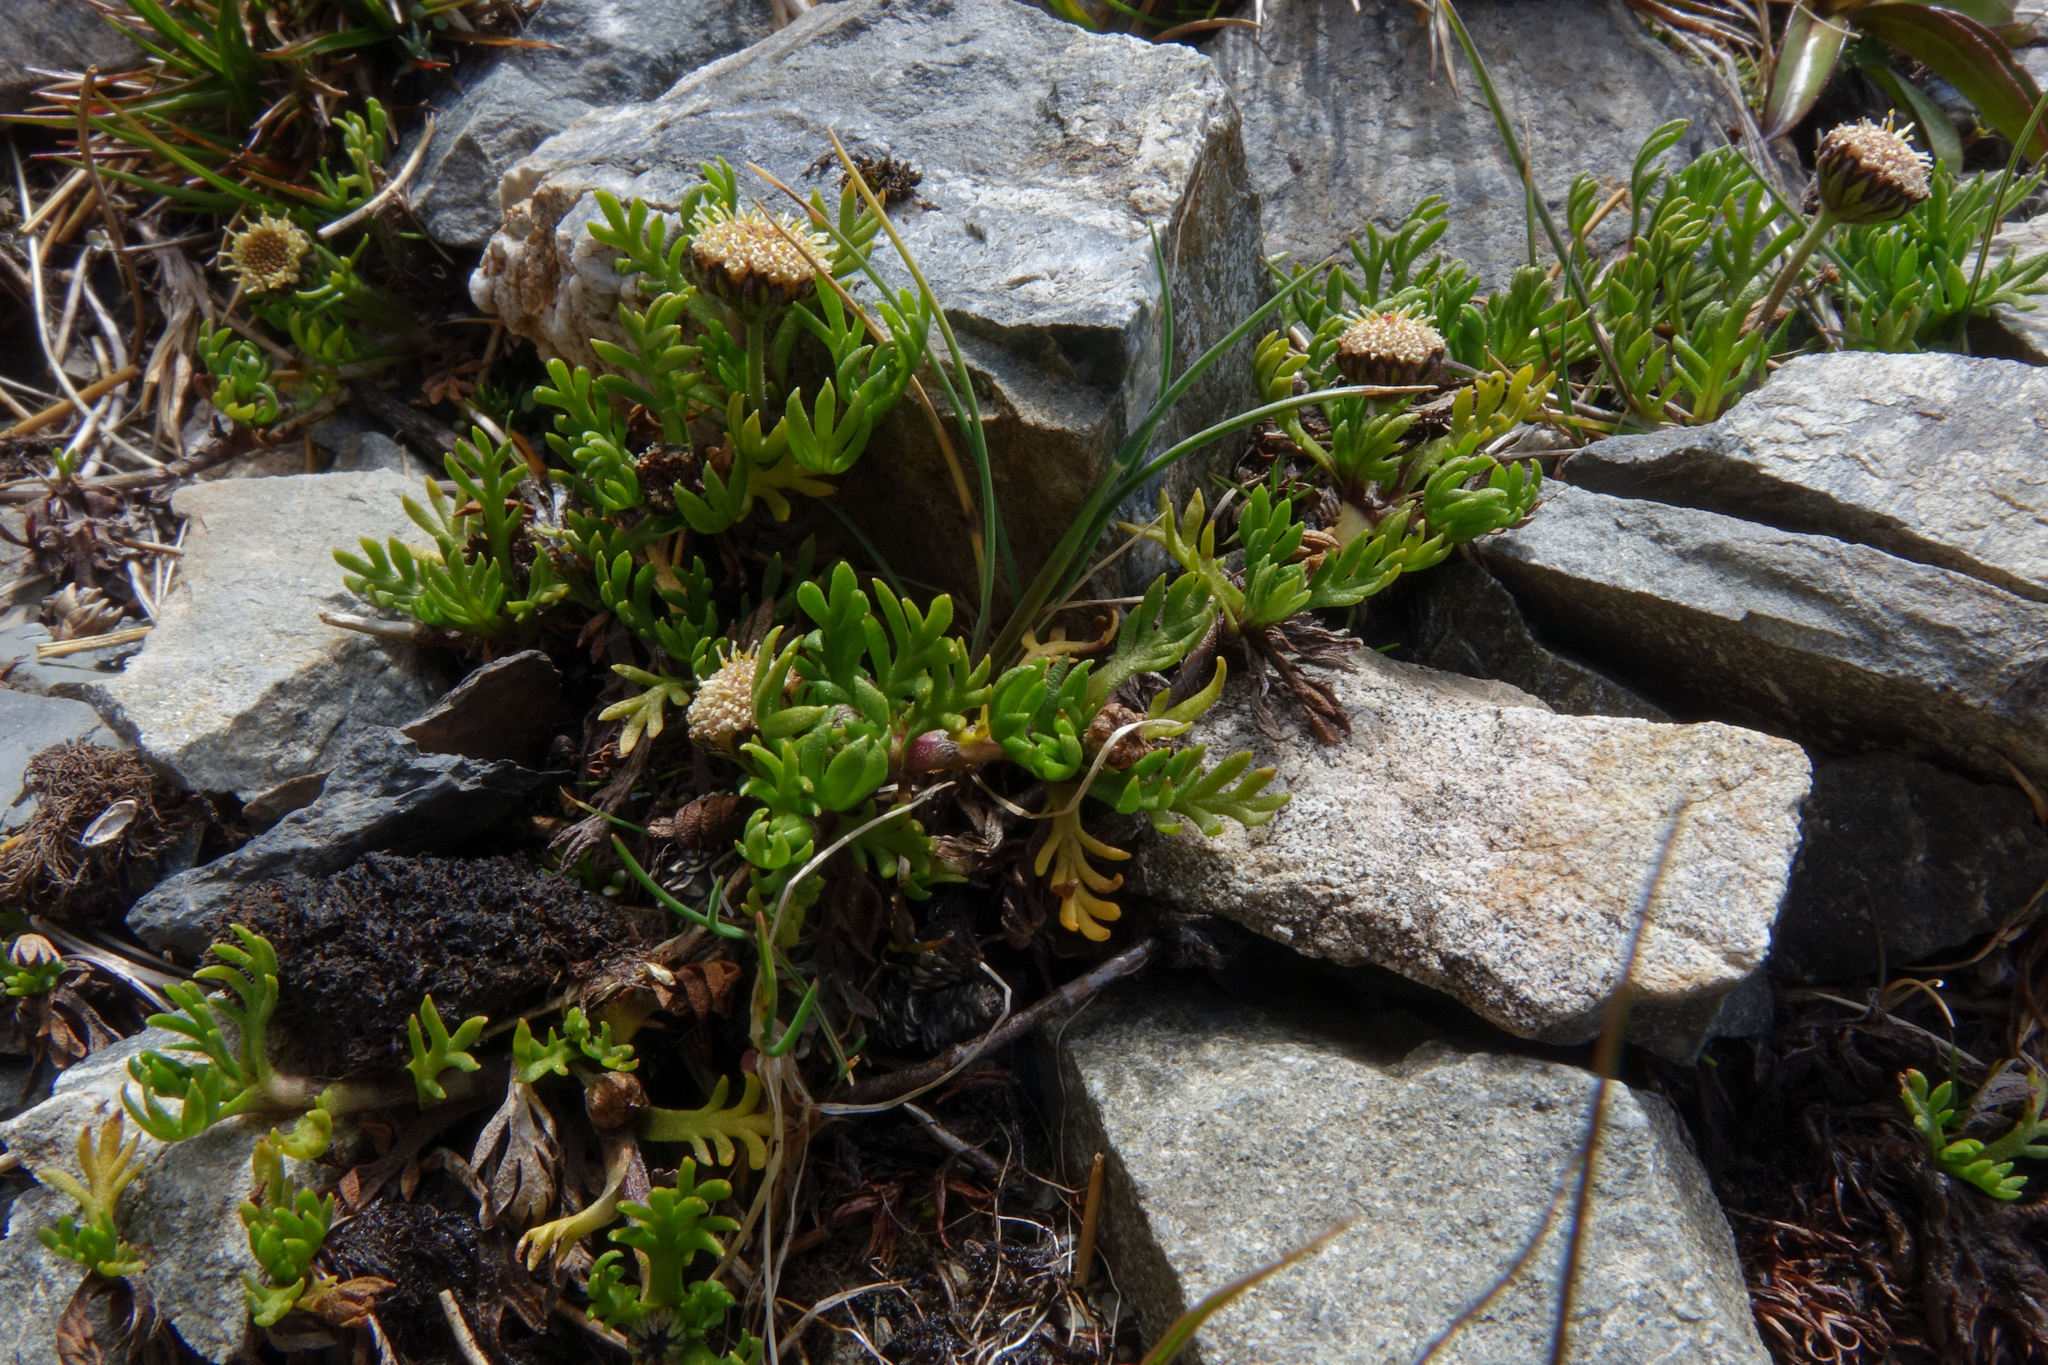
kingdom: Plantae
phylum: Tracheophyta
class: Magnoliopsida
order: Asterales
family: Asteraceae
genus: Leptinella
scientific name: Leptinella pectinata
